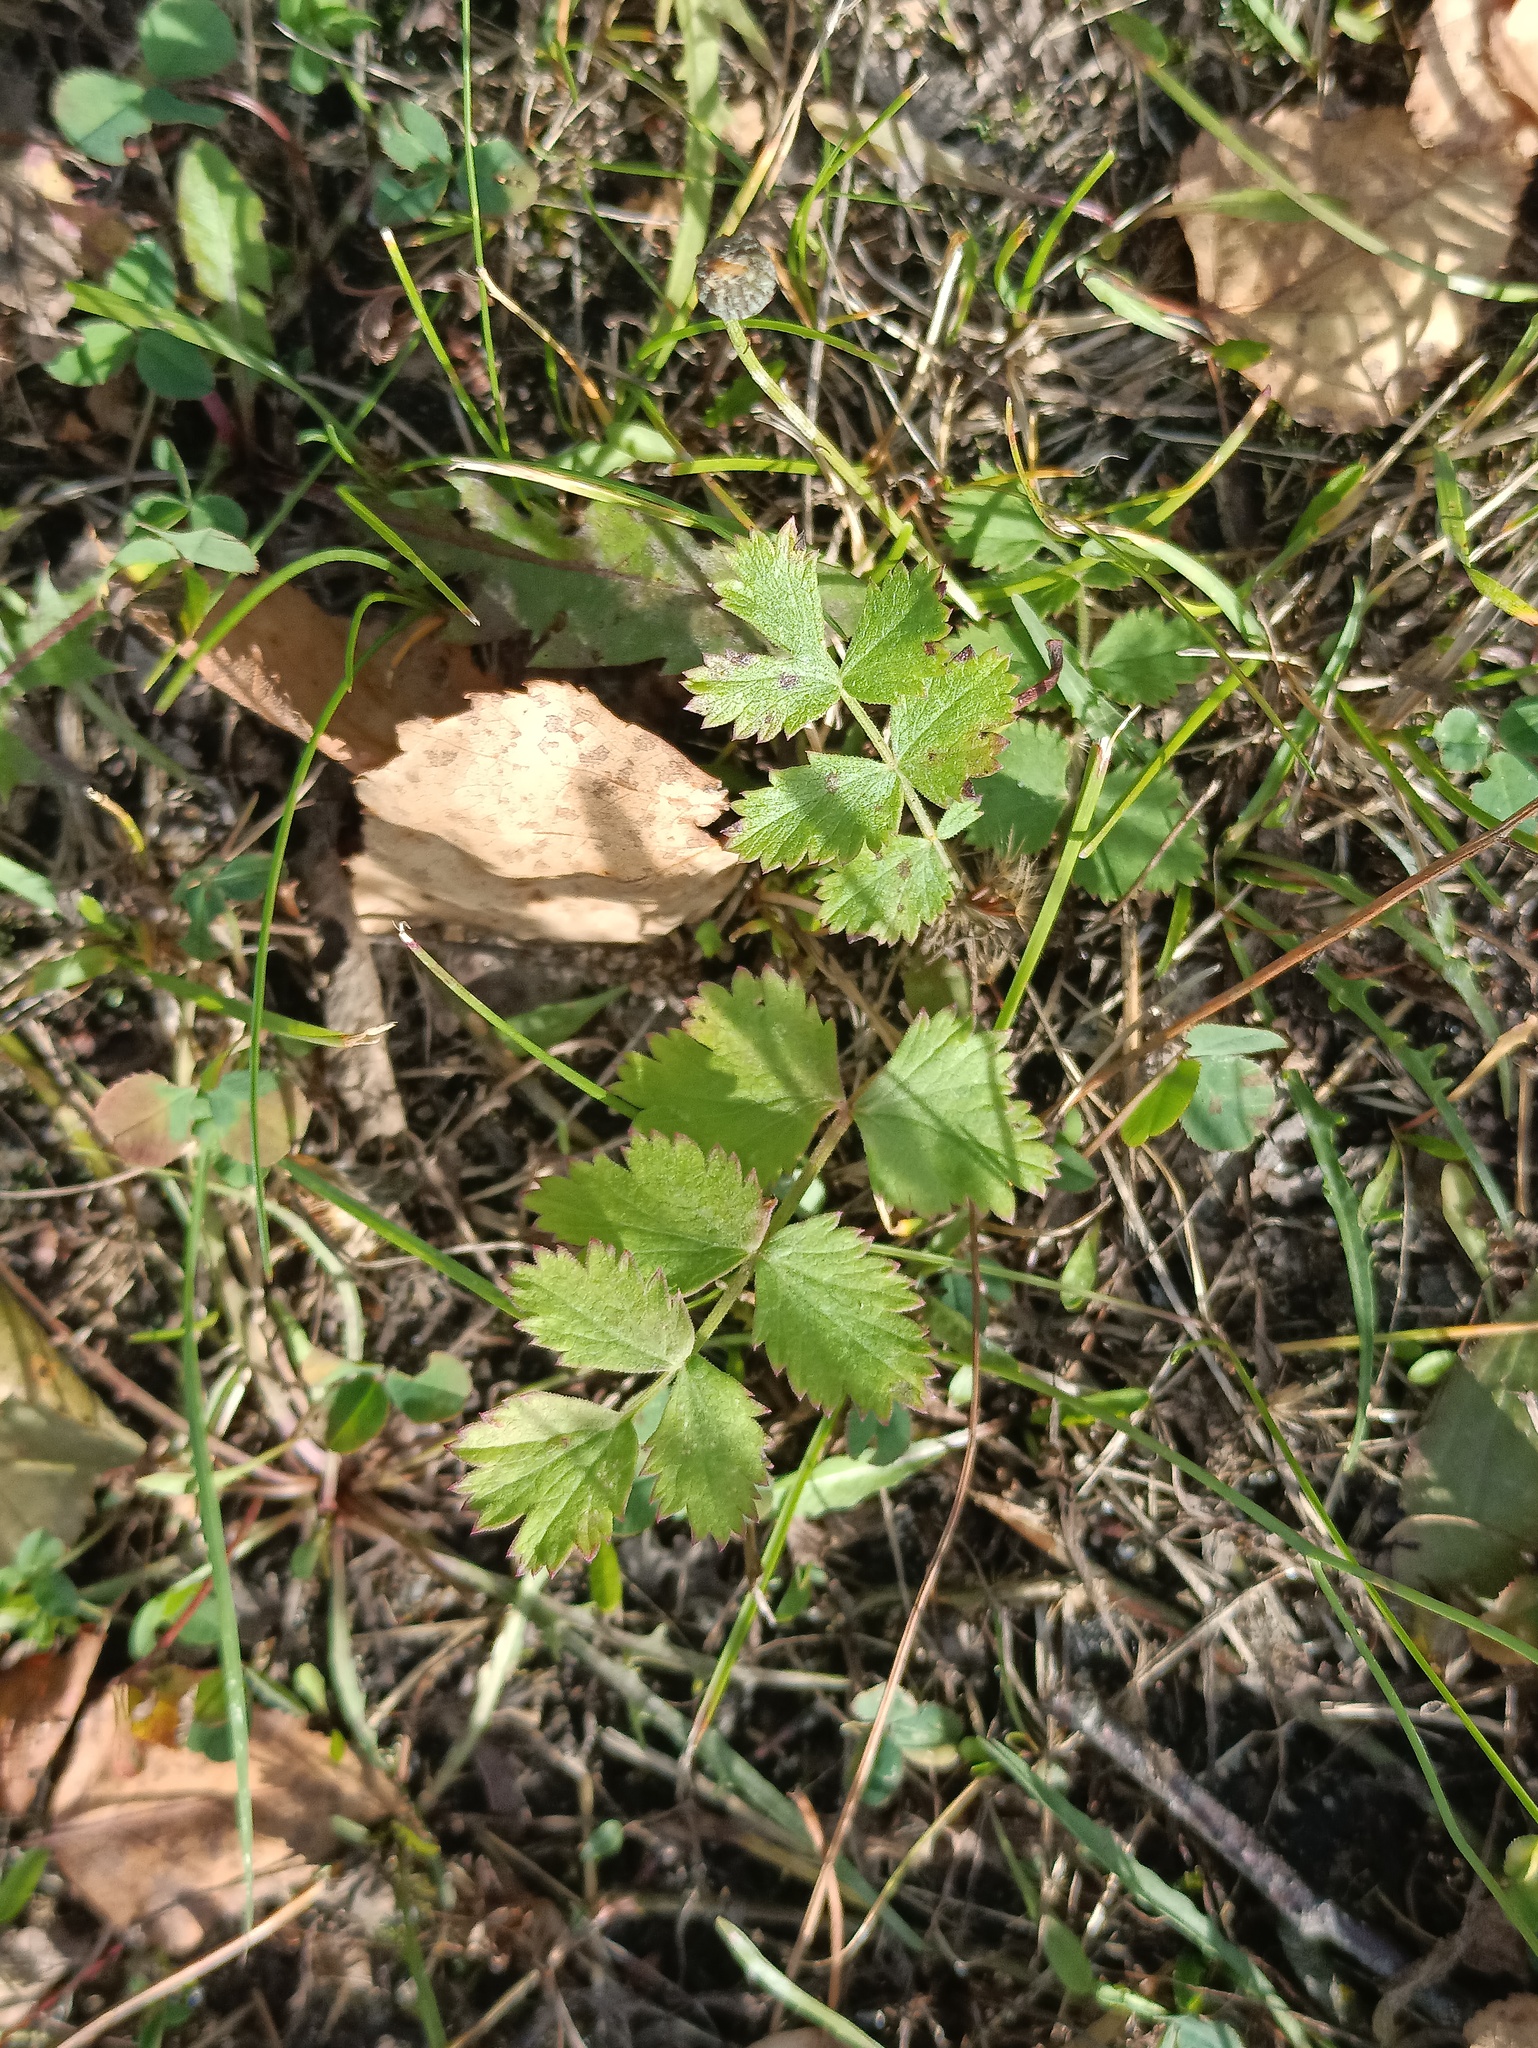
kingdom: Plantae
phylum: Tracheophyta
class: Magnoliopsida
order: Apiales
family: Apiaceae
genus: Pimpinella
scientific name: Pimpinella saxifraga
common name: Burnet-saxifrage
